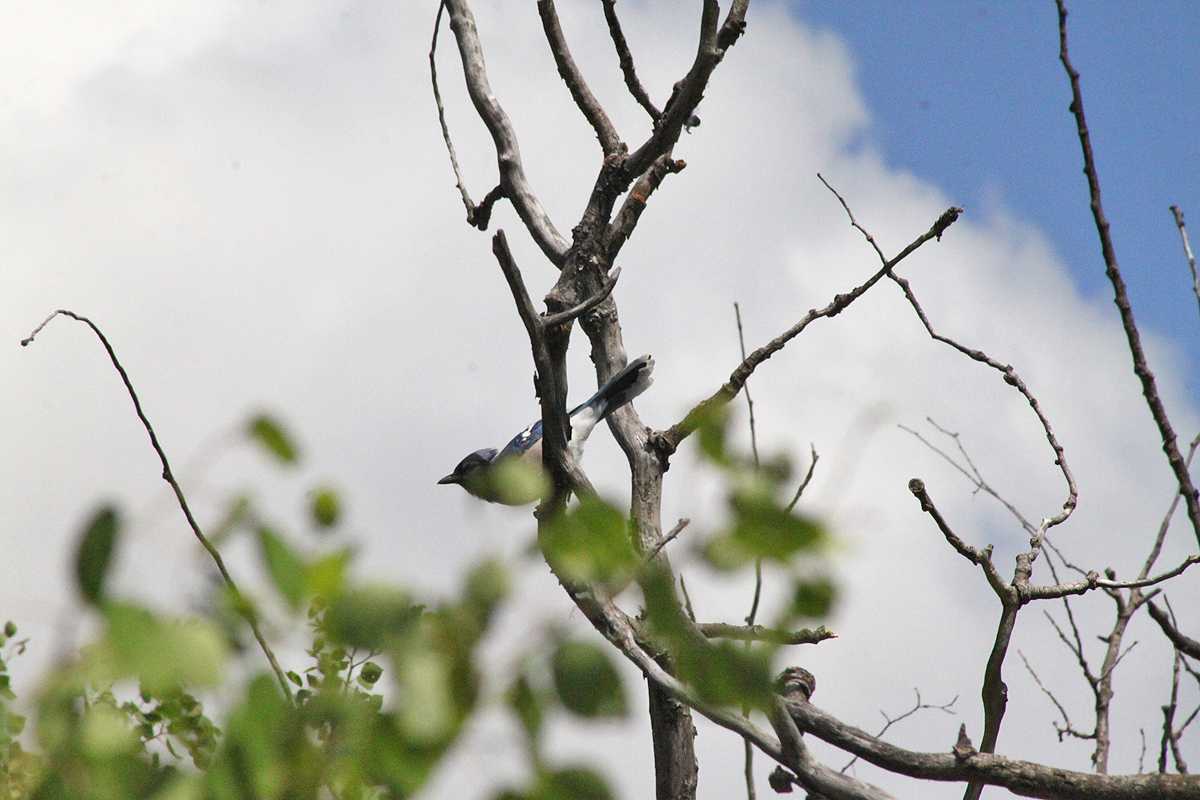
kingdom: Animalia
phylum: Chordata
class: Aves
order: Passeriformes
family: Corvidae
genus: Cyanocitta
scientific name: Cyanocitta cristata
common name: Blue jay
